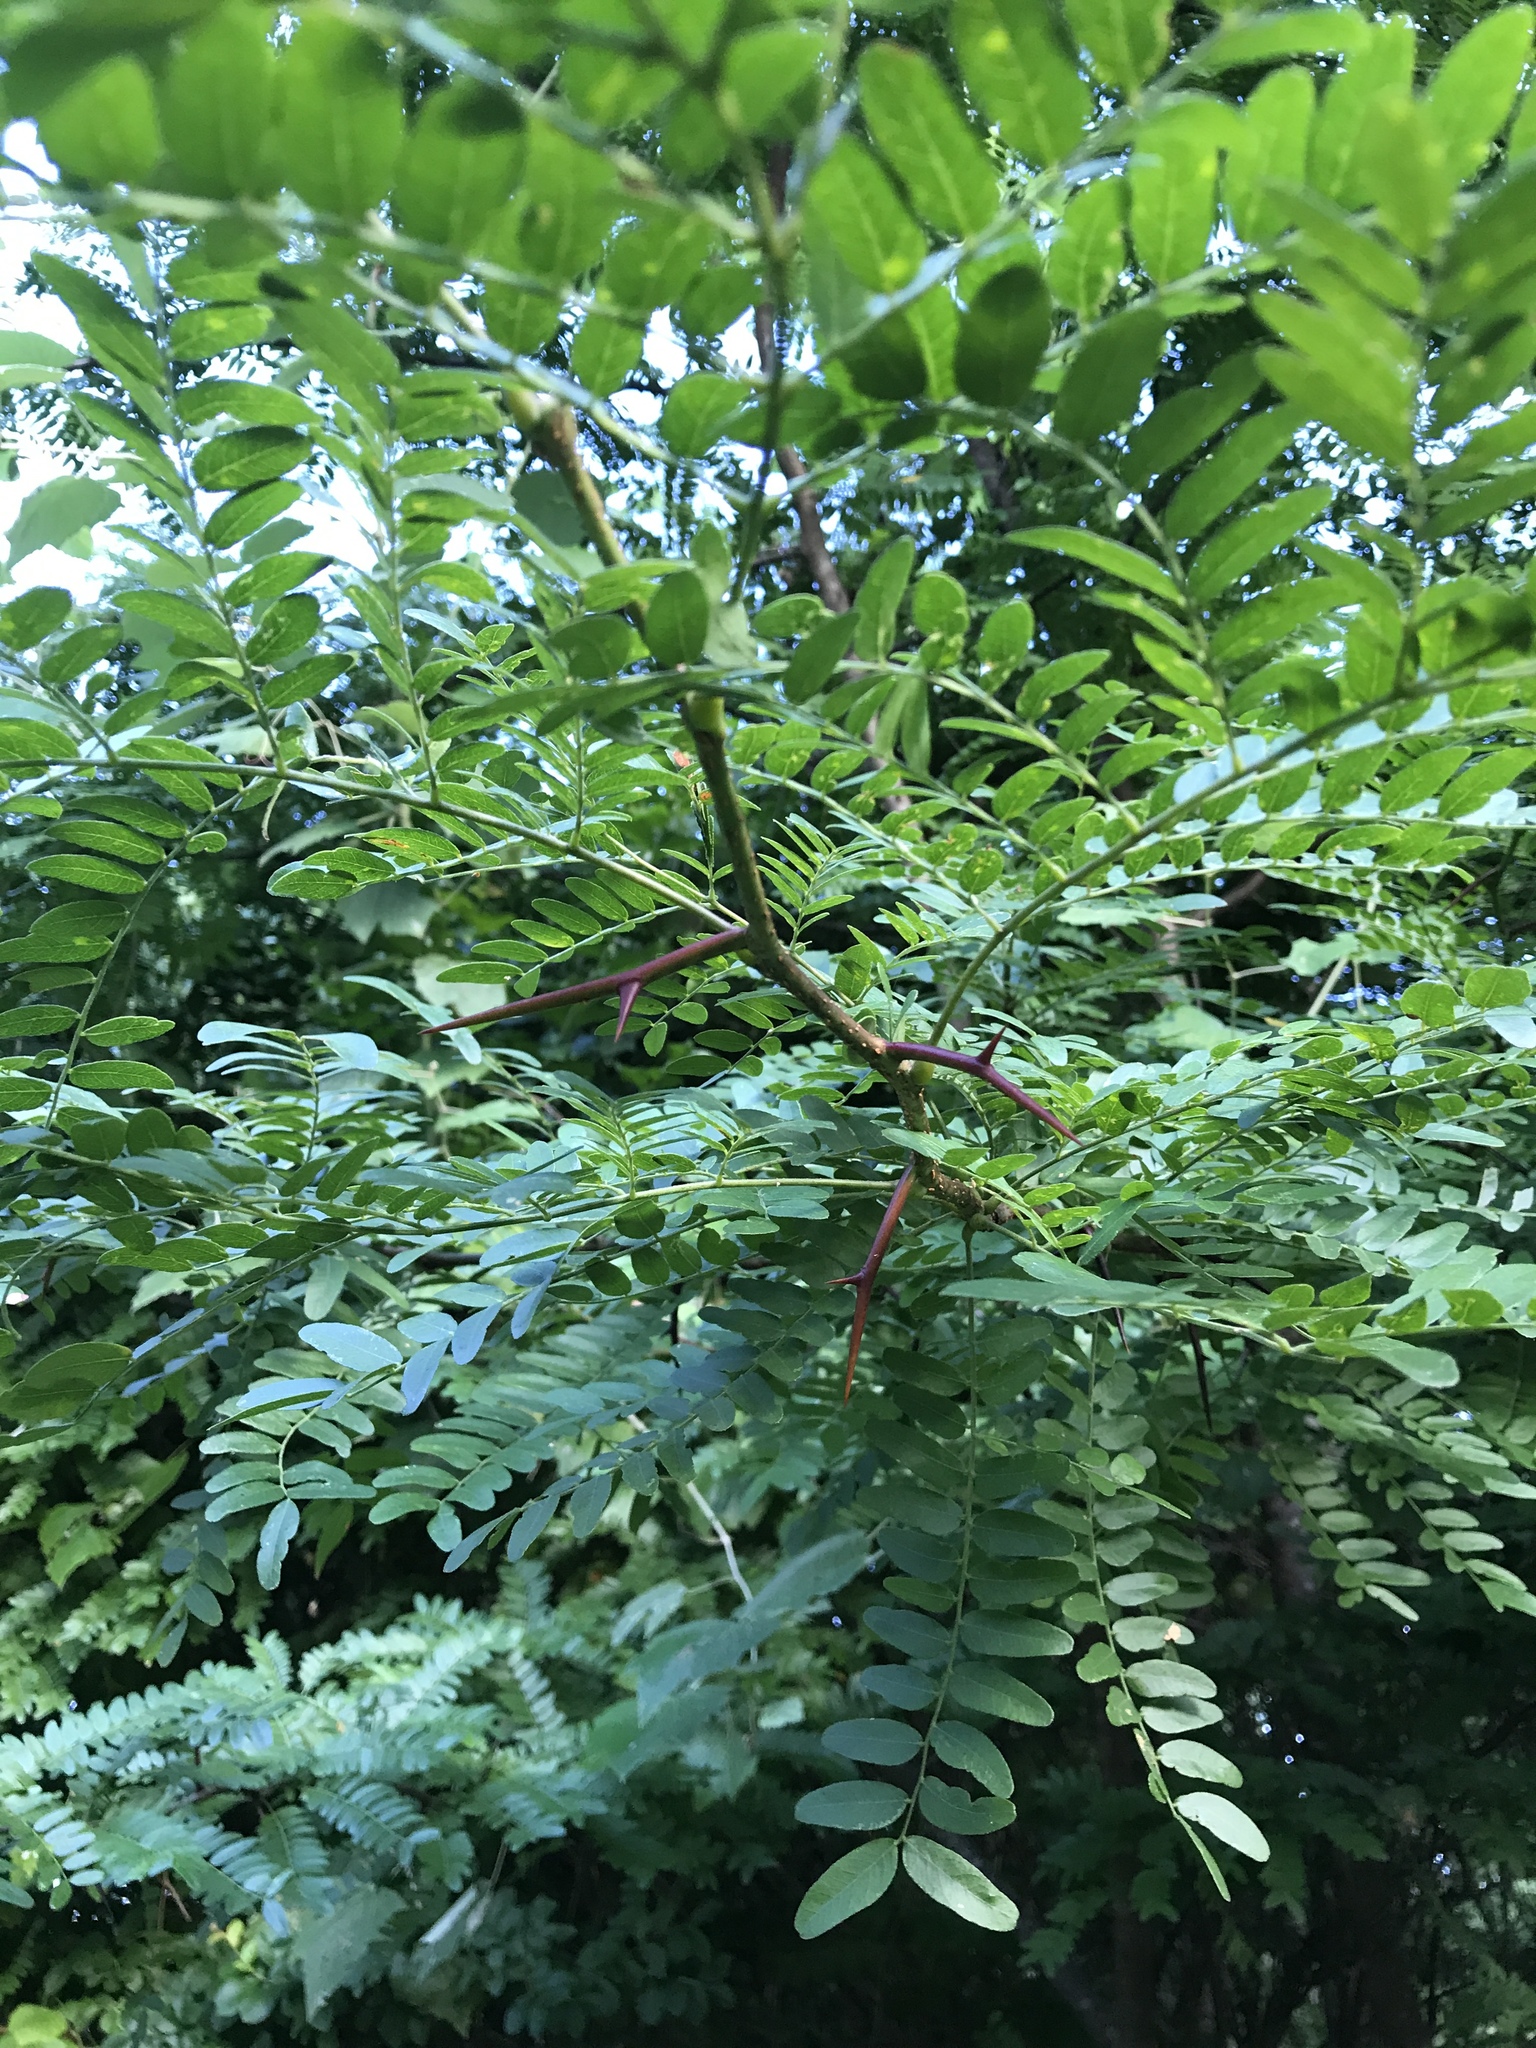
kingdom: Plantae
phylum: Tracheophyta
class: Magnoliopsida
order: Fabales
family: Fabaceae
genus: Gleditsia
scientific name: Gleditsia triacanthos
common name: Common honeylocust
